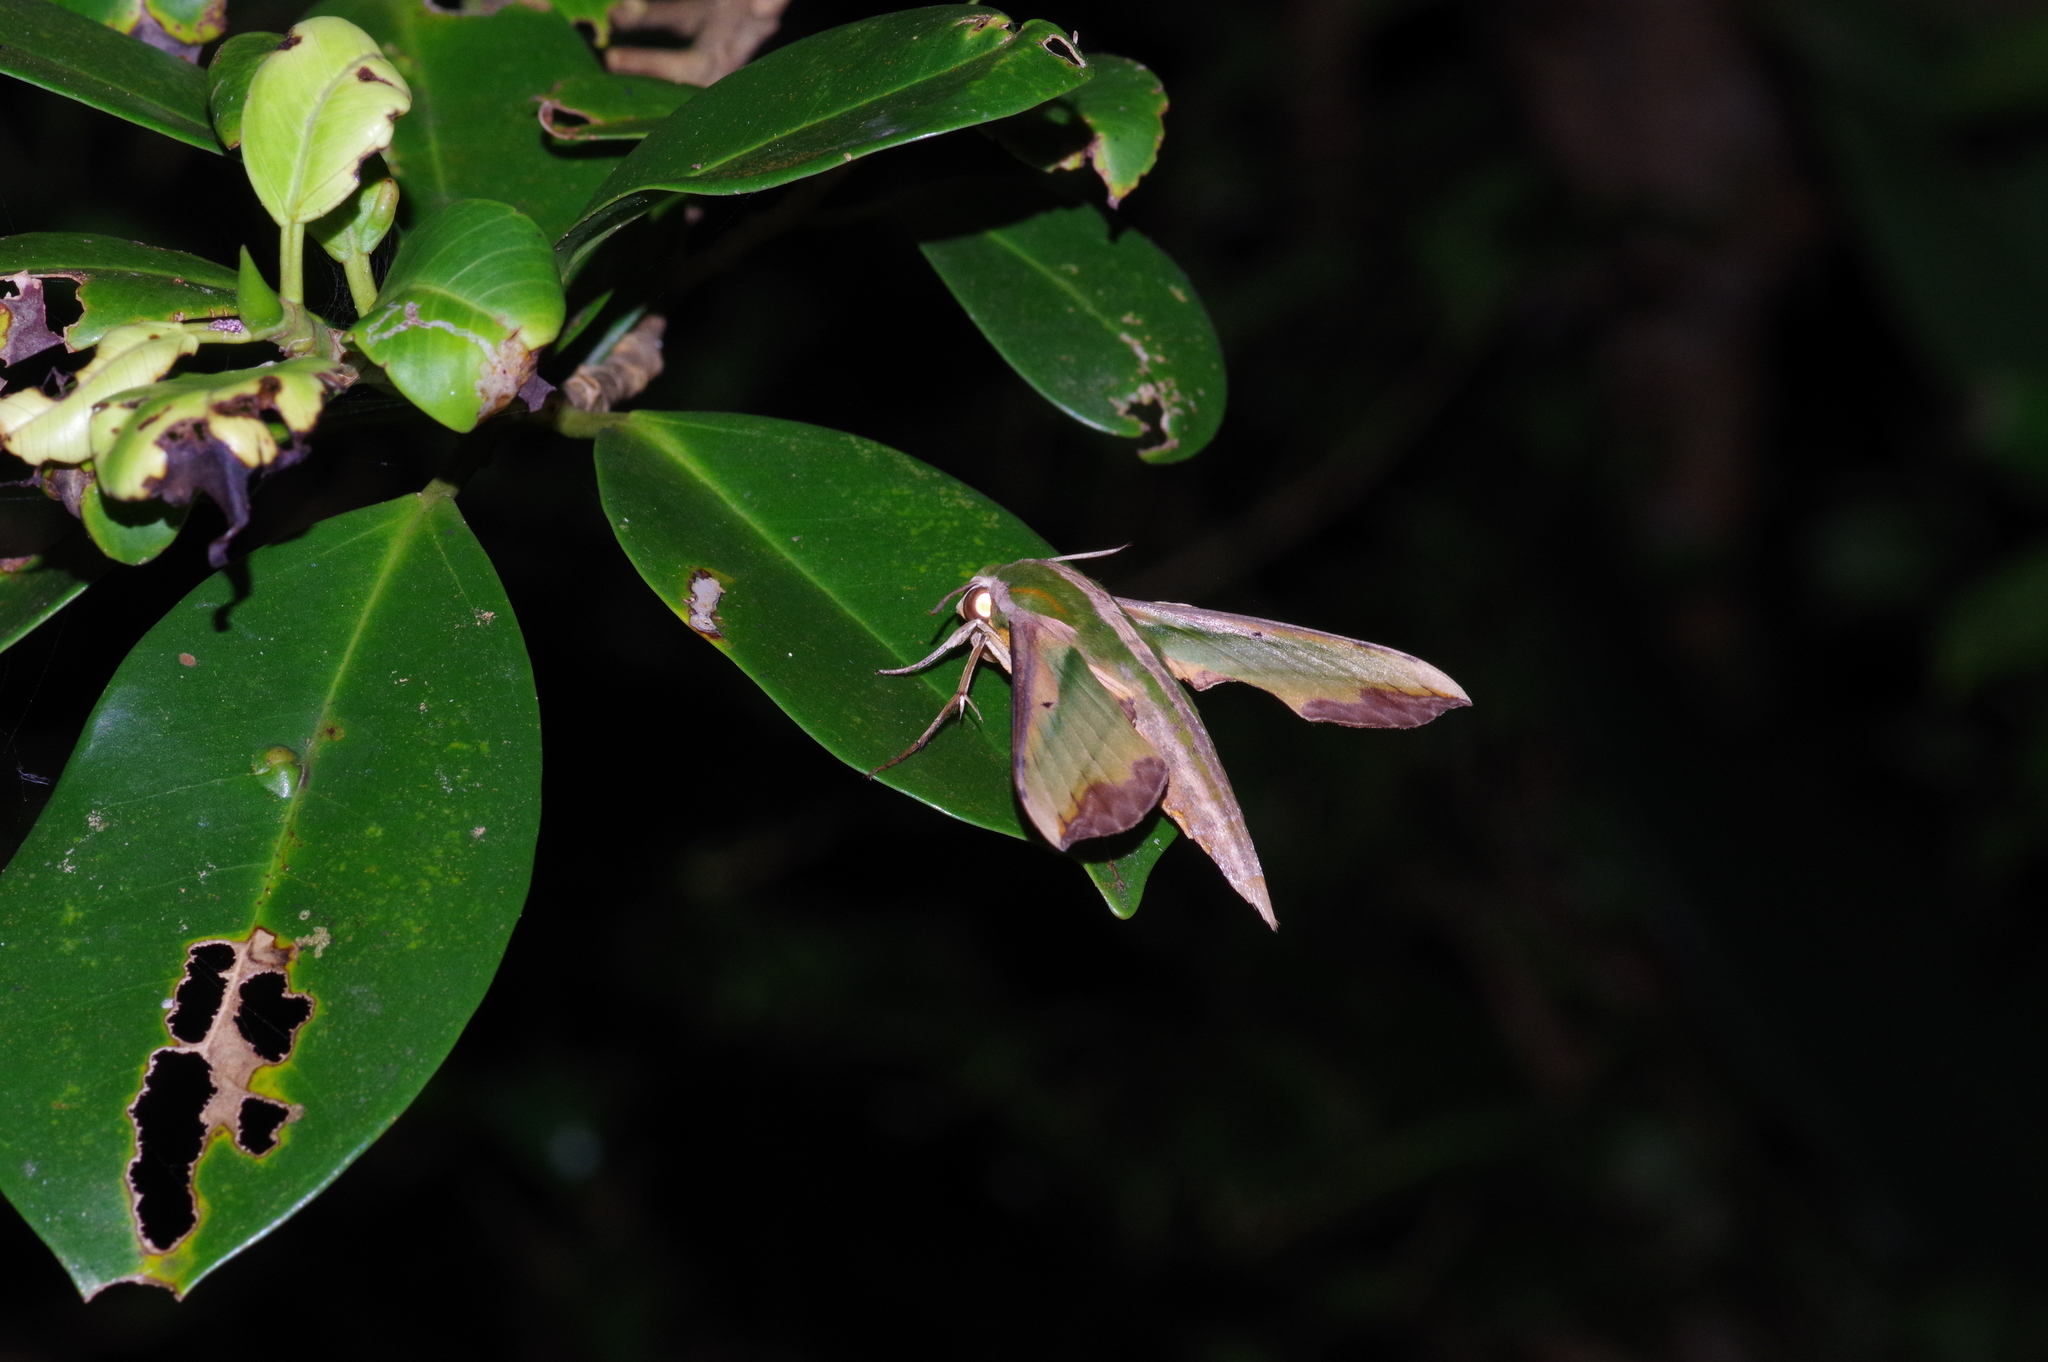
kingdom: Animalia
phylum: Arthropoda
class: Insecta
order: Lepidoptera
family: Sphingidae
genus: Pergesa
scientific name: Pergesa acteus
